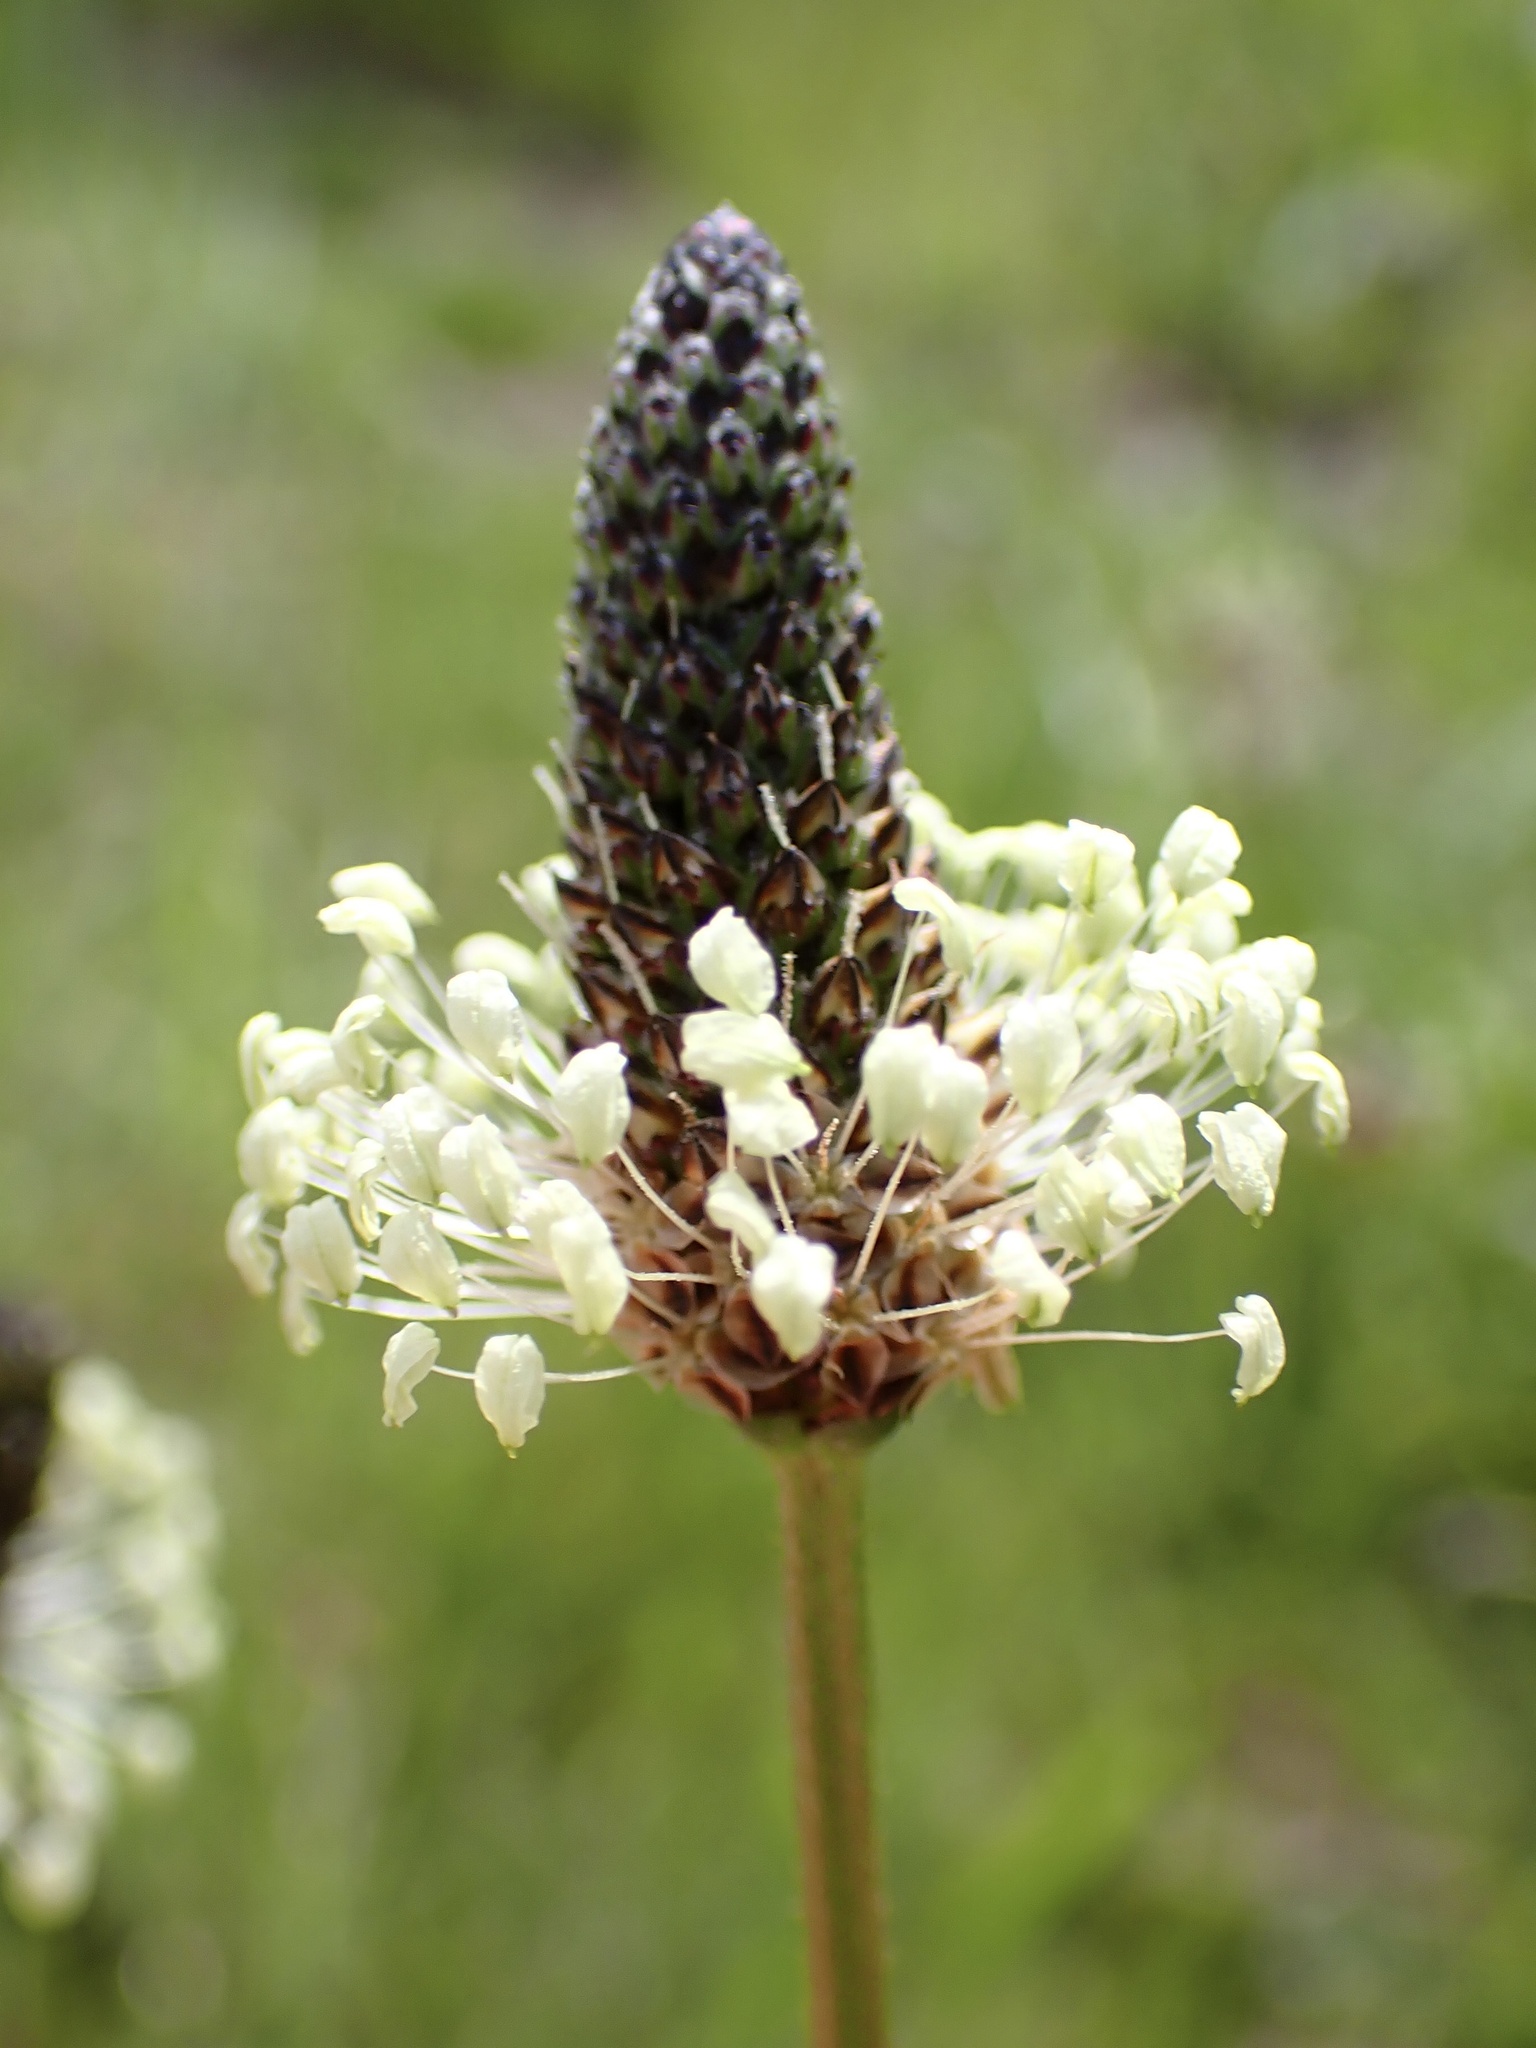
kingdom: Plantae
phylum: Tracheophyta
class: Magnoliopsida
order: Lamiales
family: Plantaginaceae
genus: Plantago
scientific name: Plantago lanceolata
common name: Ribwort plantain
